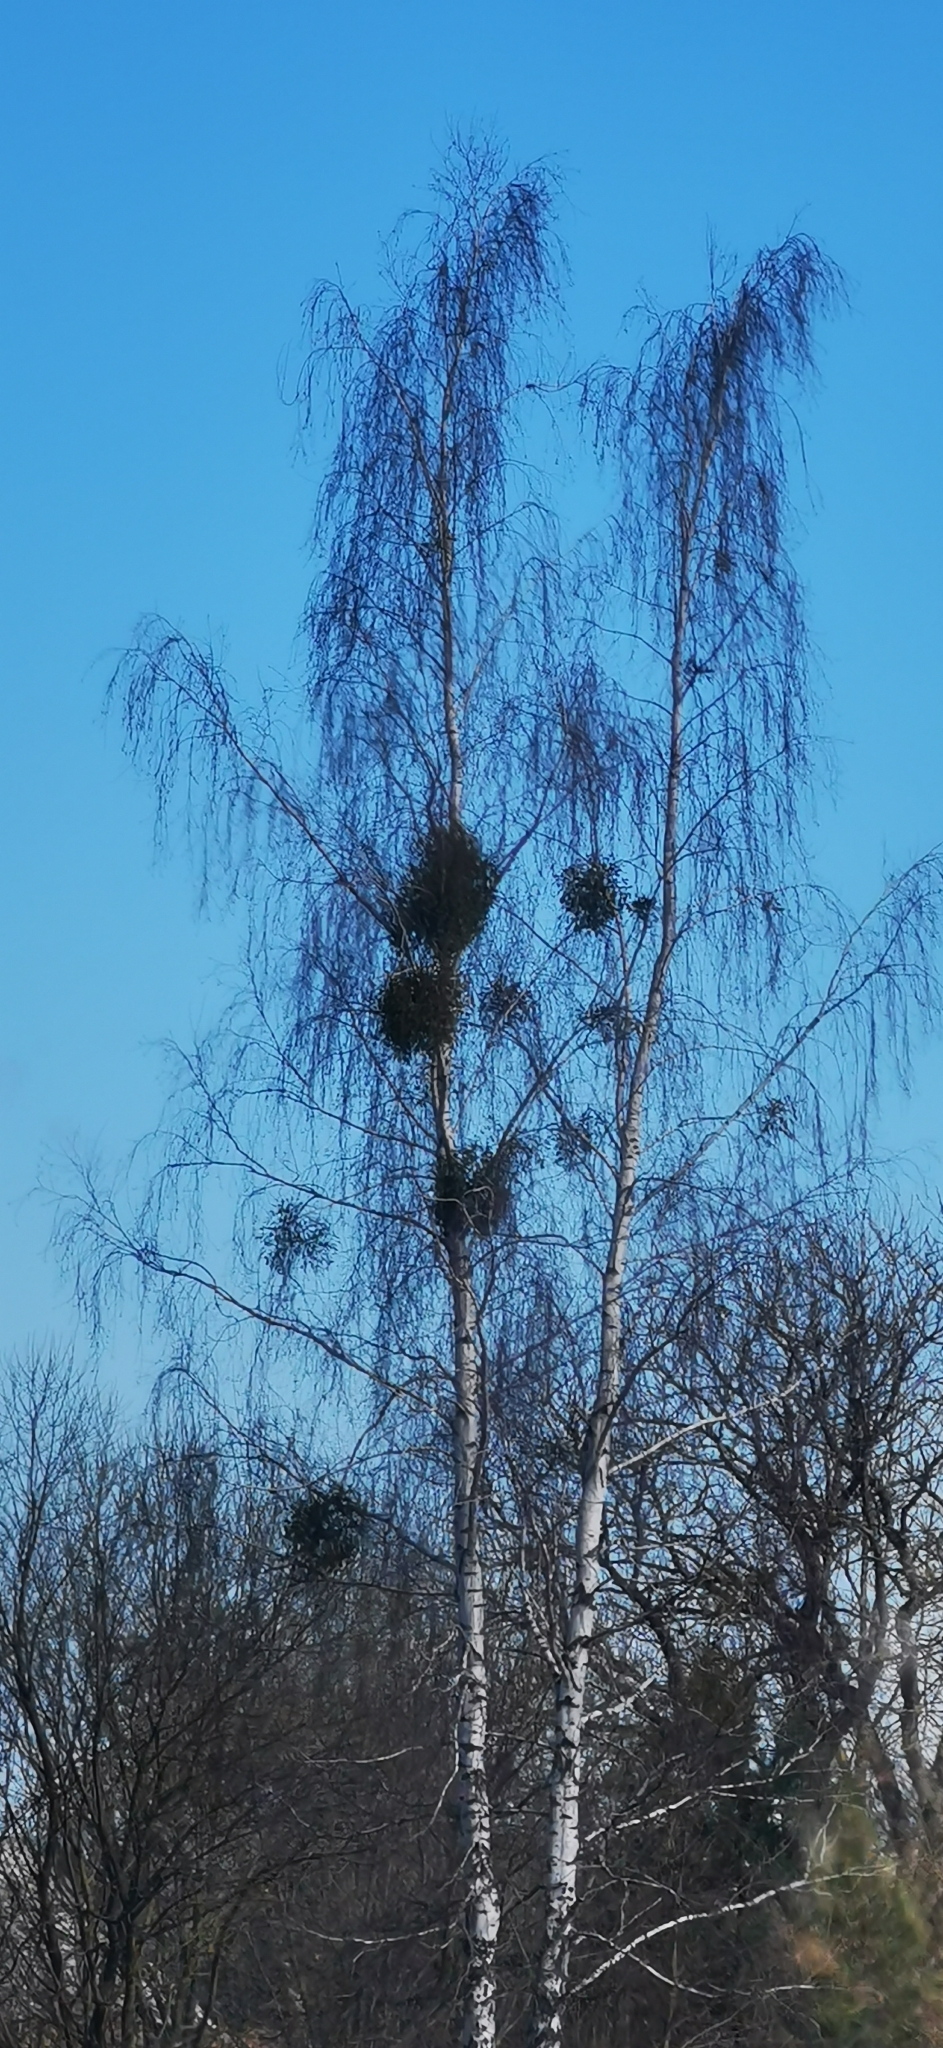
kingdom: Plantae
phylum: Tracheophyta
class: Magnoliopsida
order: Santalales
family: Viscaceae
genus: Viscum
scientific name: Viscum album
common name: Mistletoe
